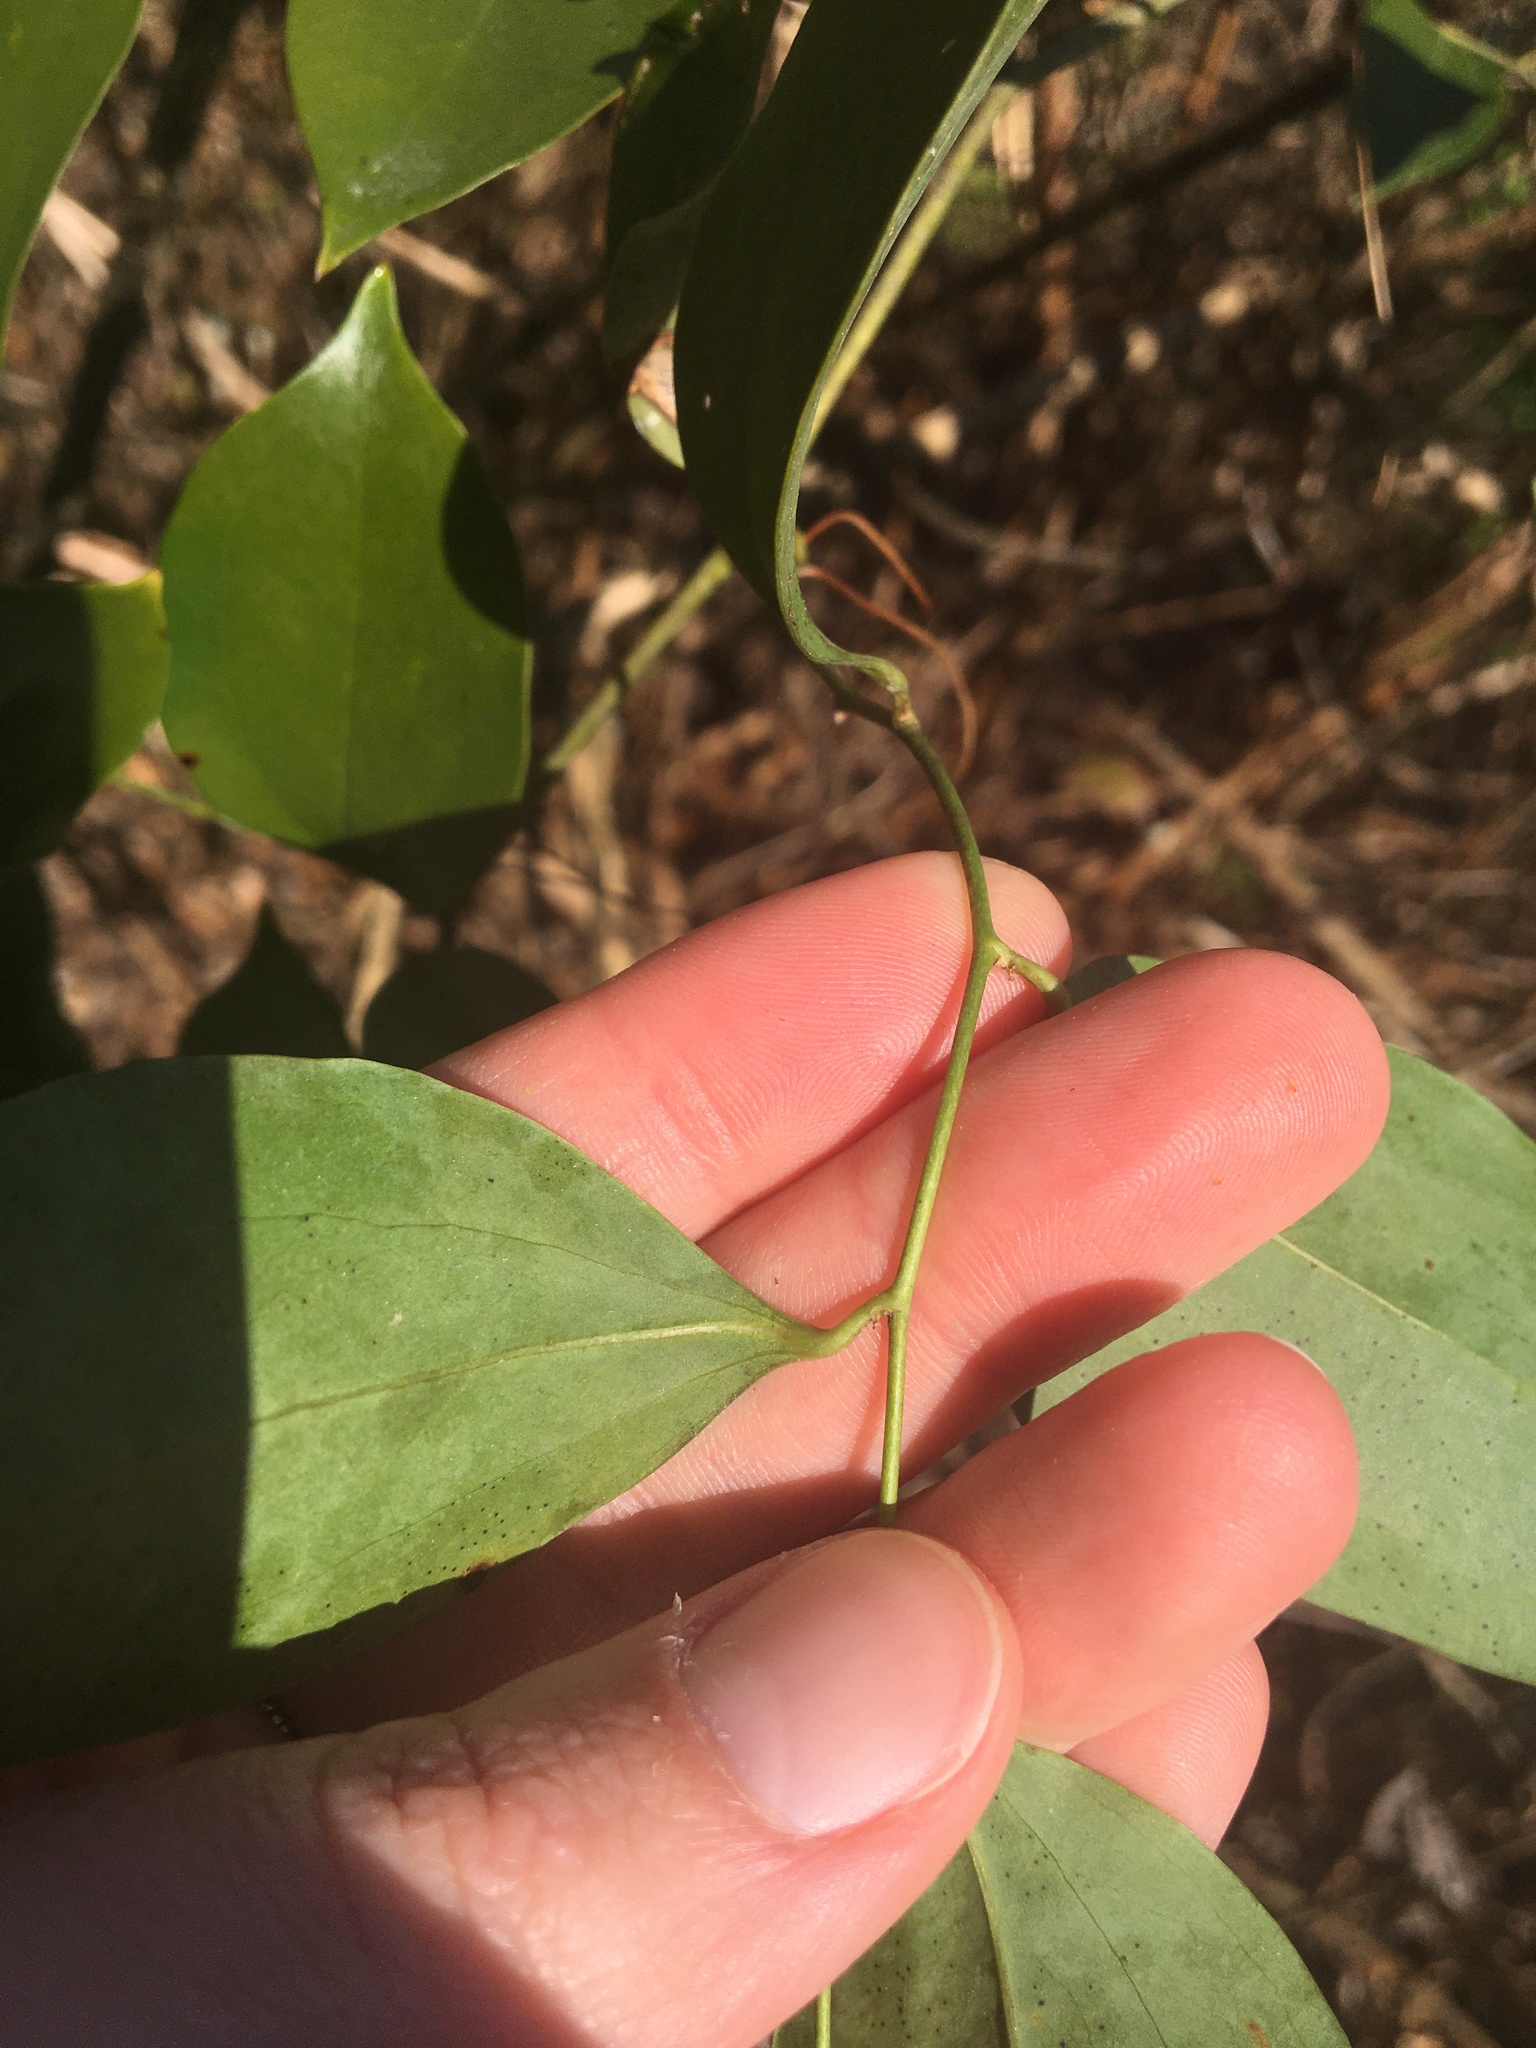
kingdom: Plantae
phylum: Tracheophyta
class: Liliopsida
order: Liliales
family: Smilacaceae
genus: Smilax
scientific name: Smilax maritima
